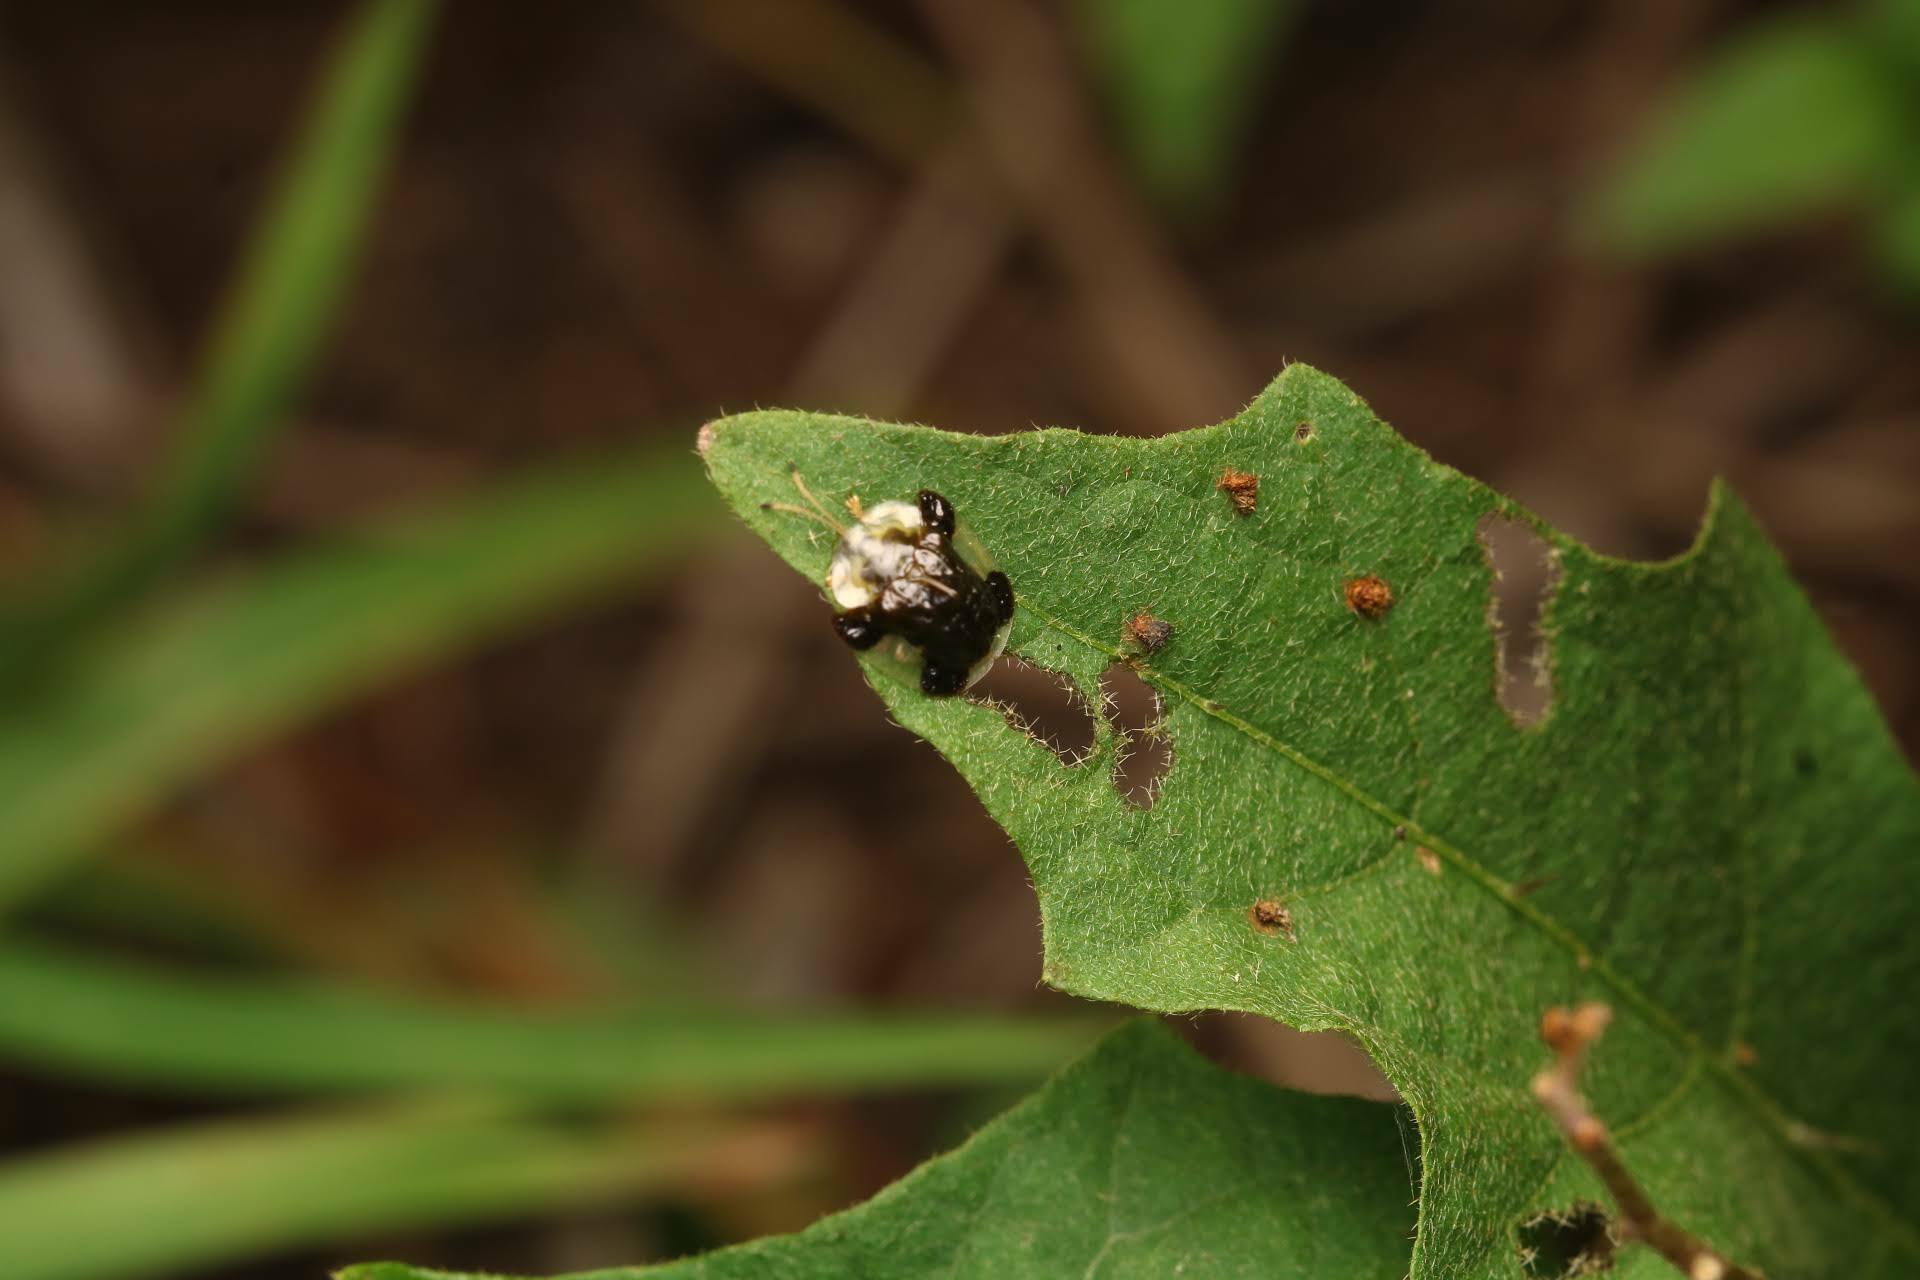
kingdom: Animalia
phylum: Arthropoda
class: Insecta
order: Coleoptera
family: Chrysomelidae
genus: Helocassis
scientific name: Helocassis clavata
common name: Clavate tortoise beetle
